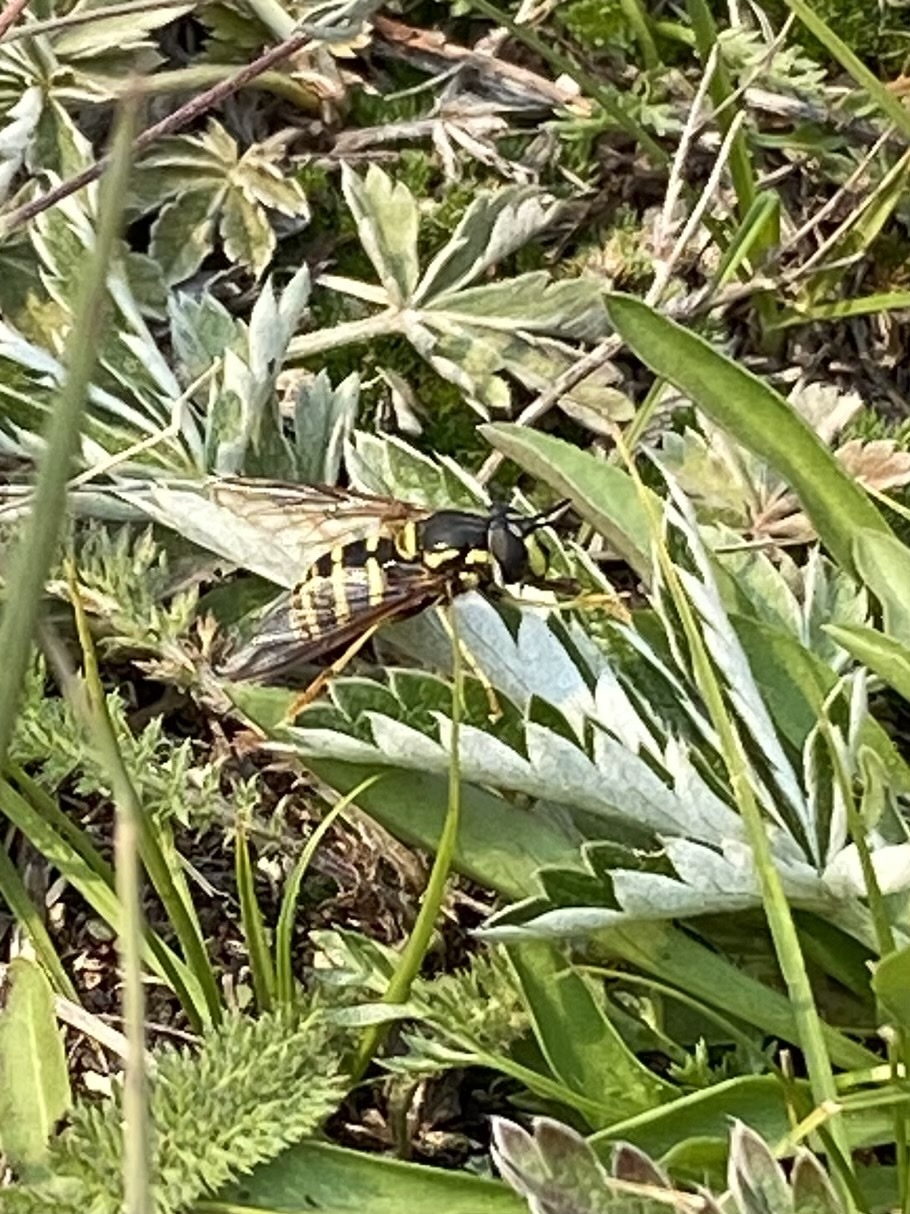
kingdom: Animalia
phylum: Arthropoda
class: Insecta
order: Diptera
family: Syrphidae
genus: Chrysotoxum
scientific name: Chrysotoxum
